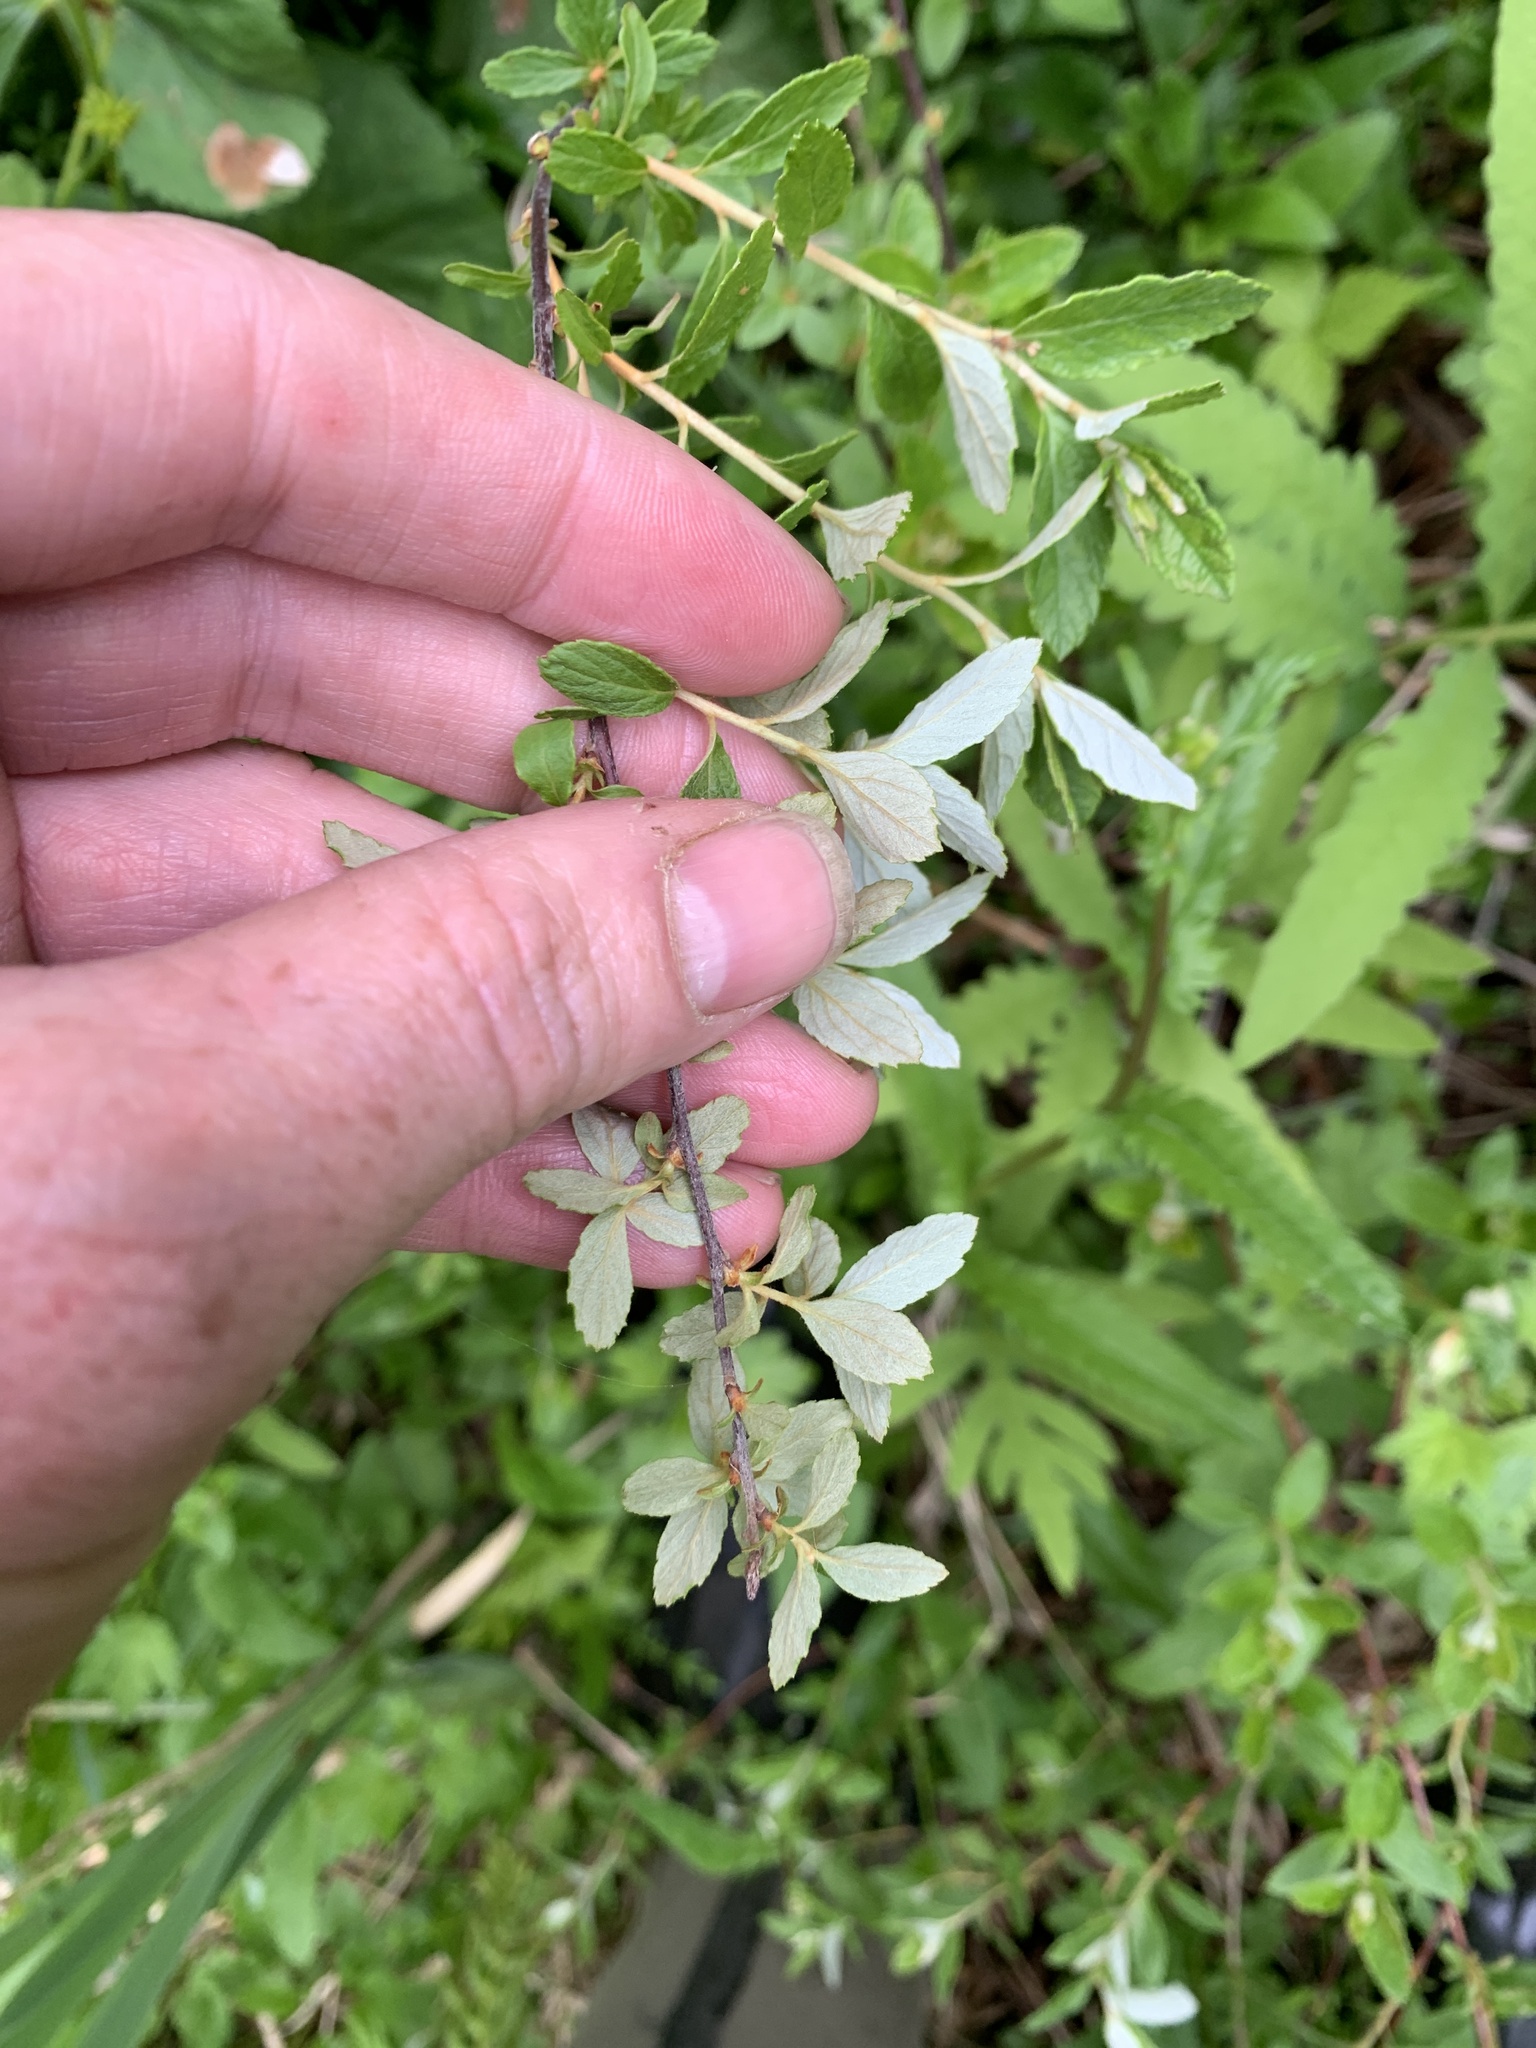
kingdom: Plantae
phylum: Tracheophyta
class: Magnoliopsida
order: Rosales
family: Rosaceae
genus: Spiraea
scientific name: Spiraea tomentosa
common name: Hardhack
